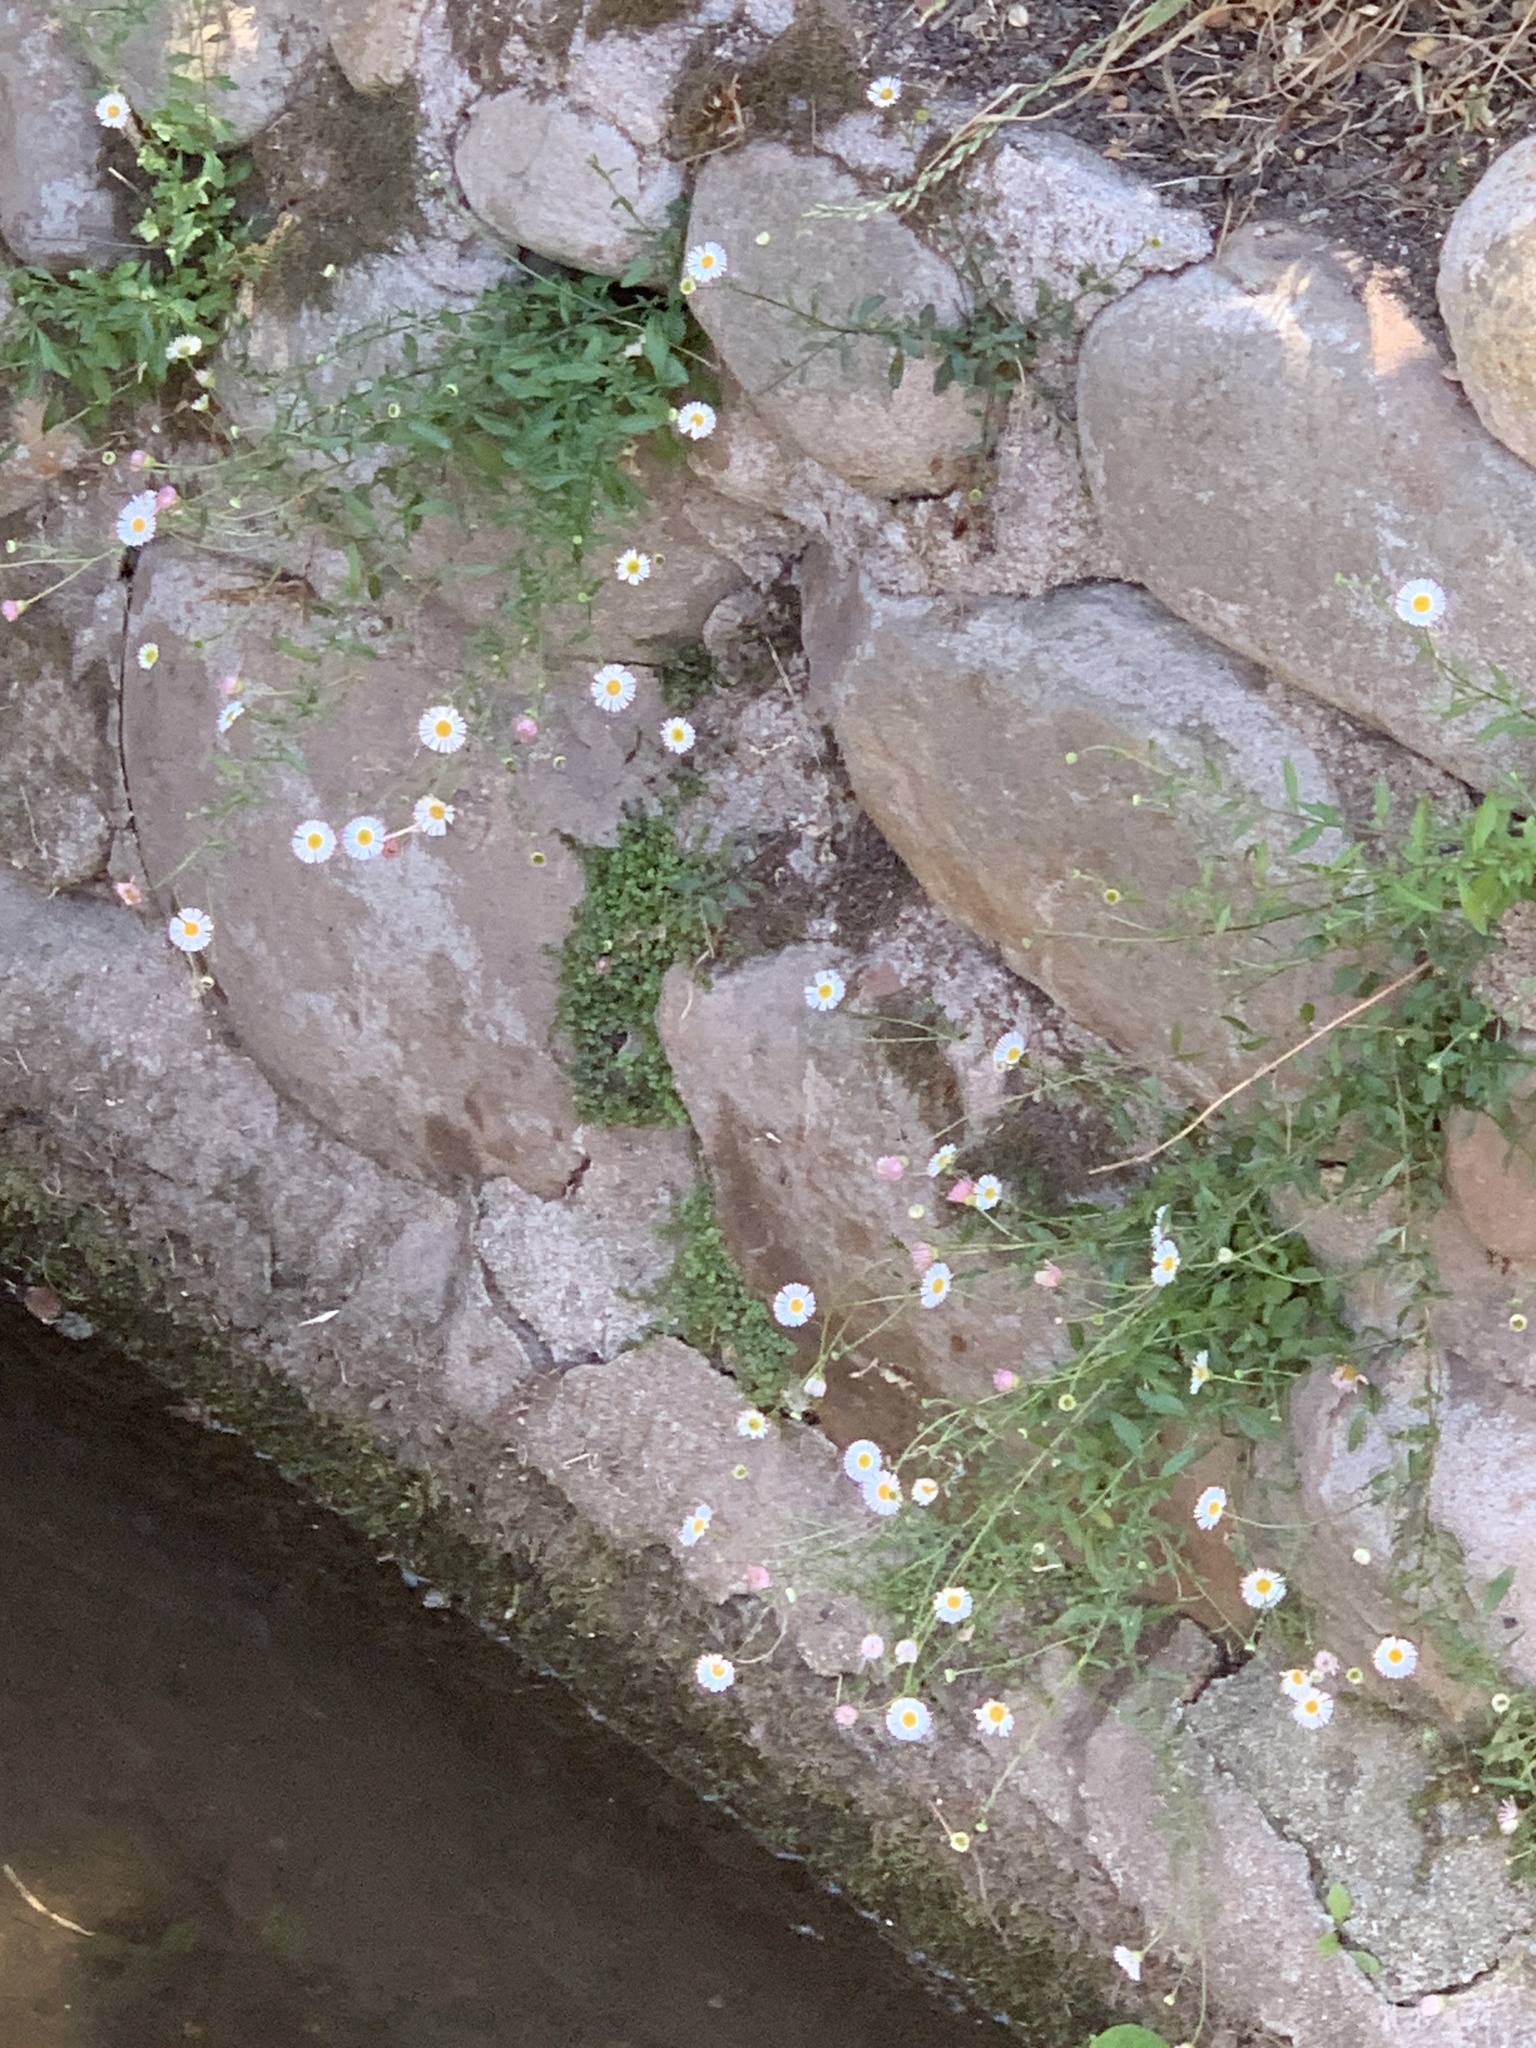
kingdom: Plantae
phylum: Tracheophyta
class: Magnoliopsida
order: Asterales
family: Asteraceae
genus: Erigeron
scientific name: Erigeron karvinskianus
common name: Mexican fleabane
